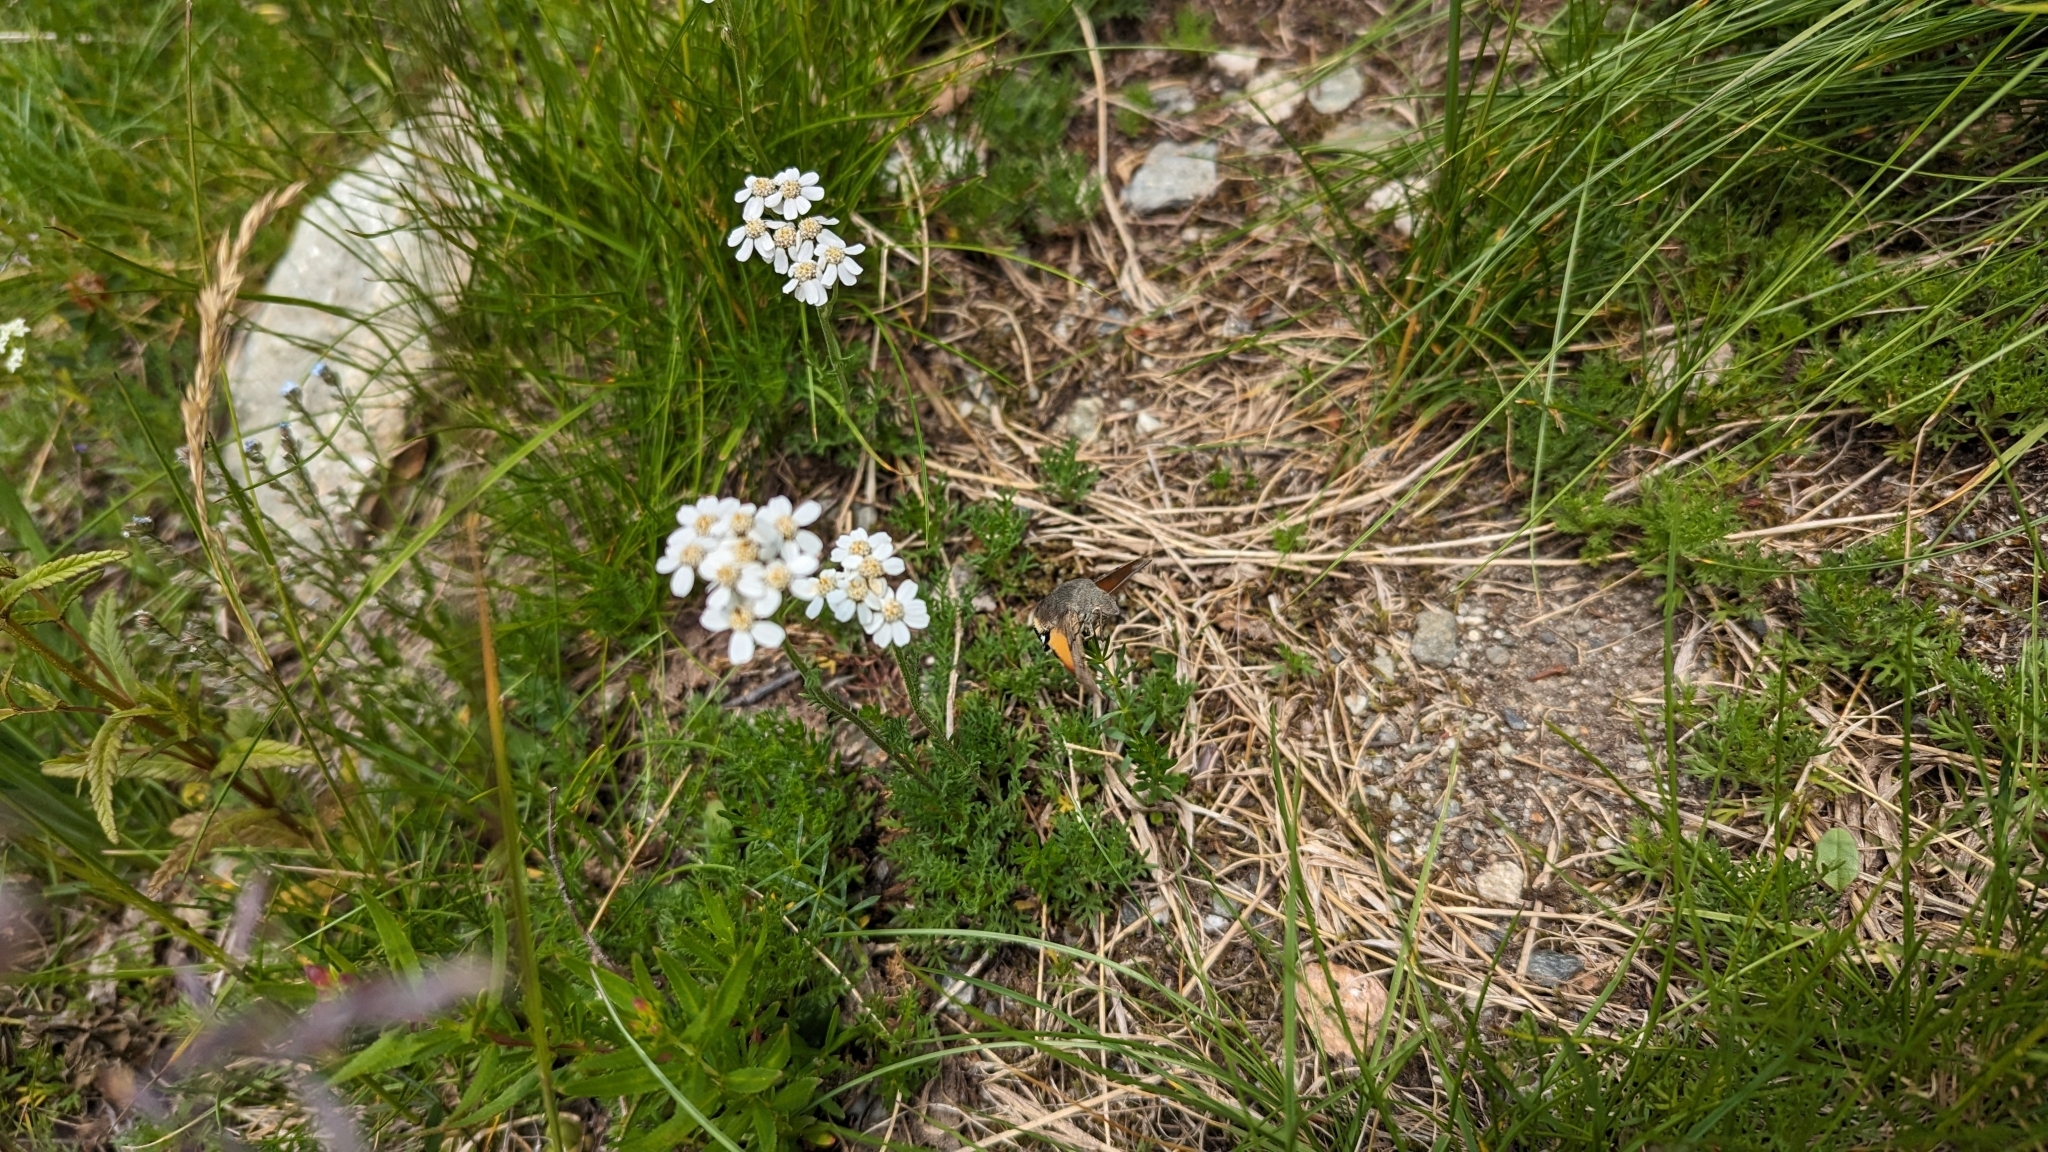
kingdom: Animalia
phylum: Arthropoda
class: Insecta
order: Lepidoptera
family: Sphingidae
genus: Macroglossum
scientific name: Macroglossum stellatarum
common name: Humming-bird hawk-moth
